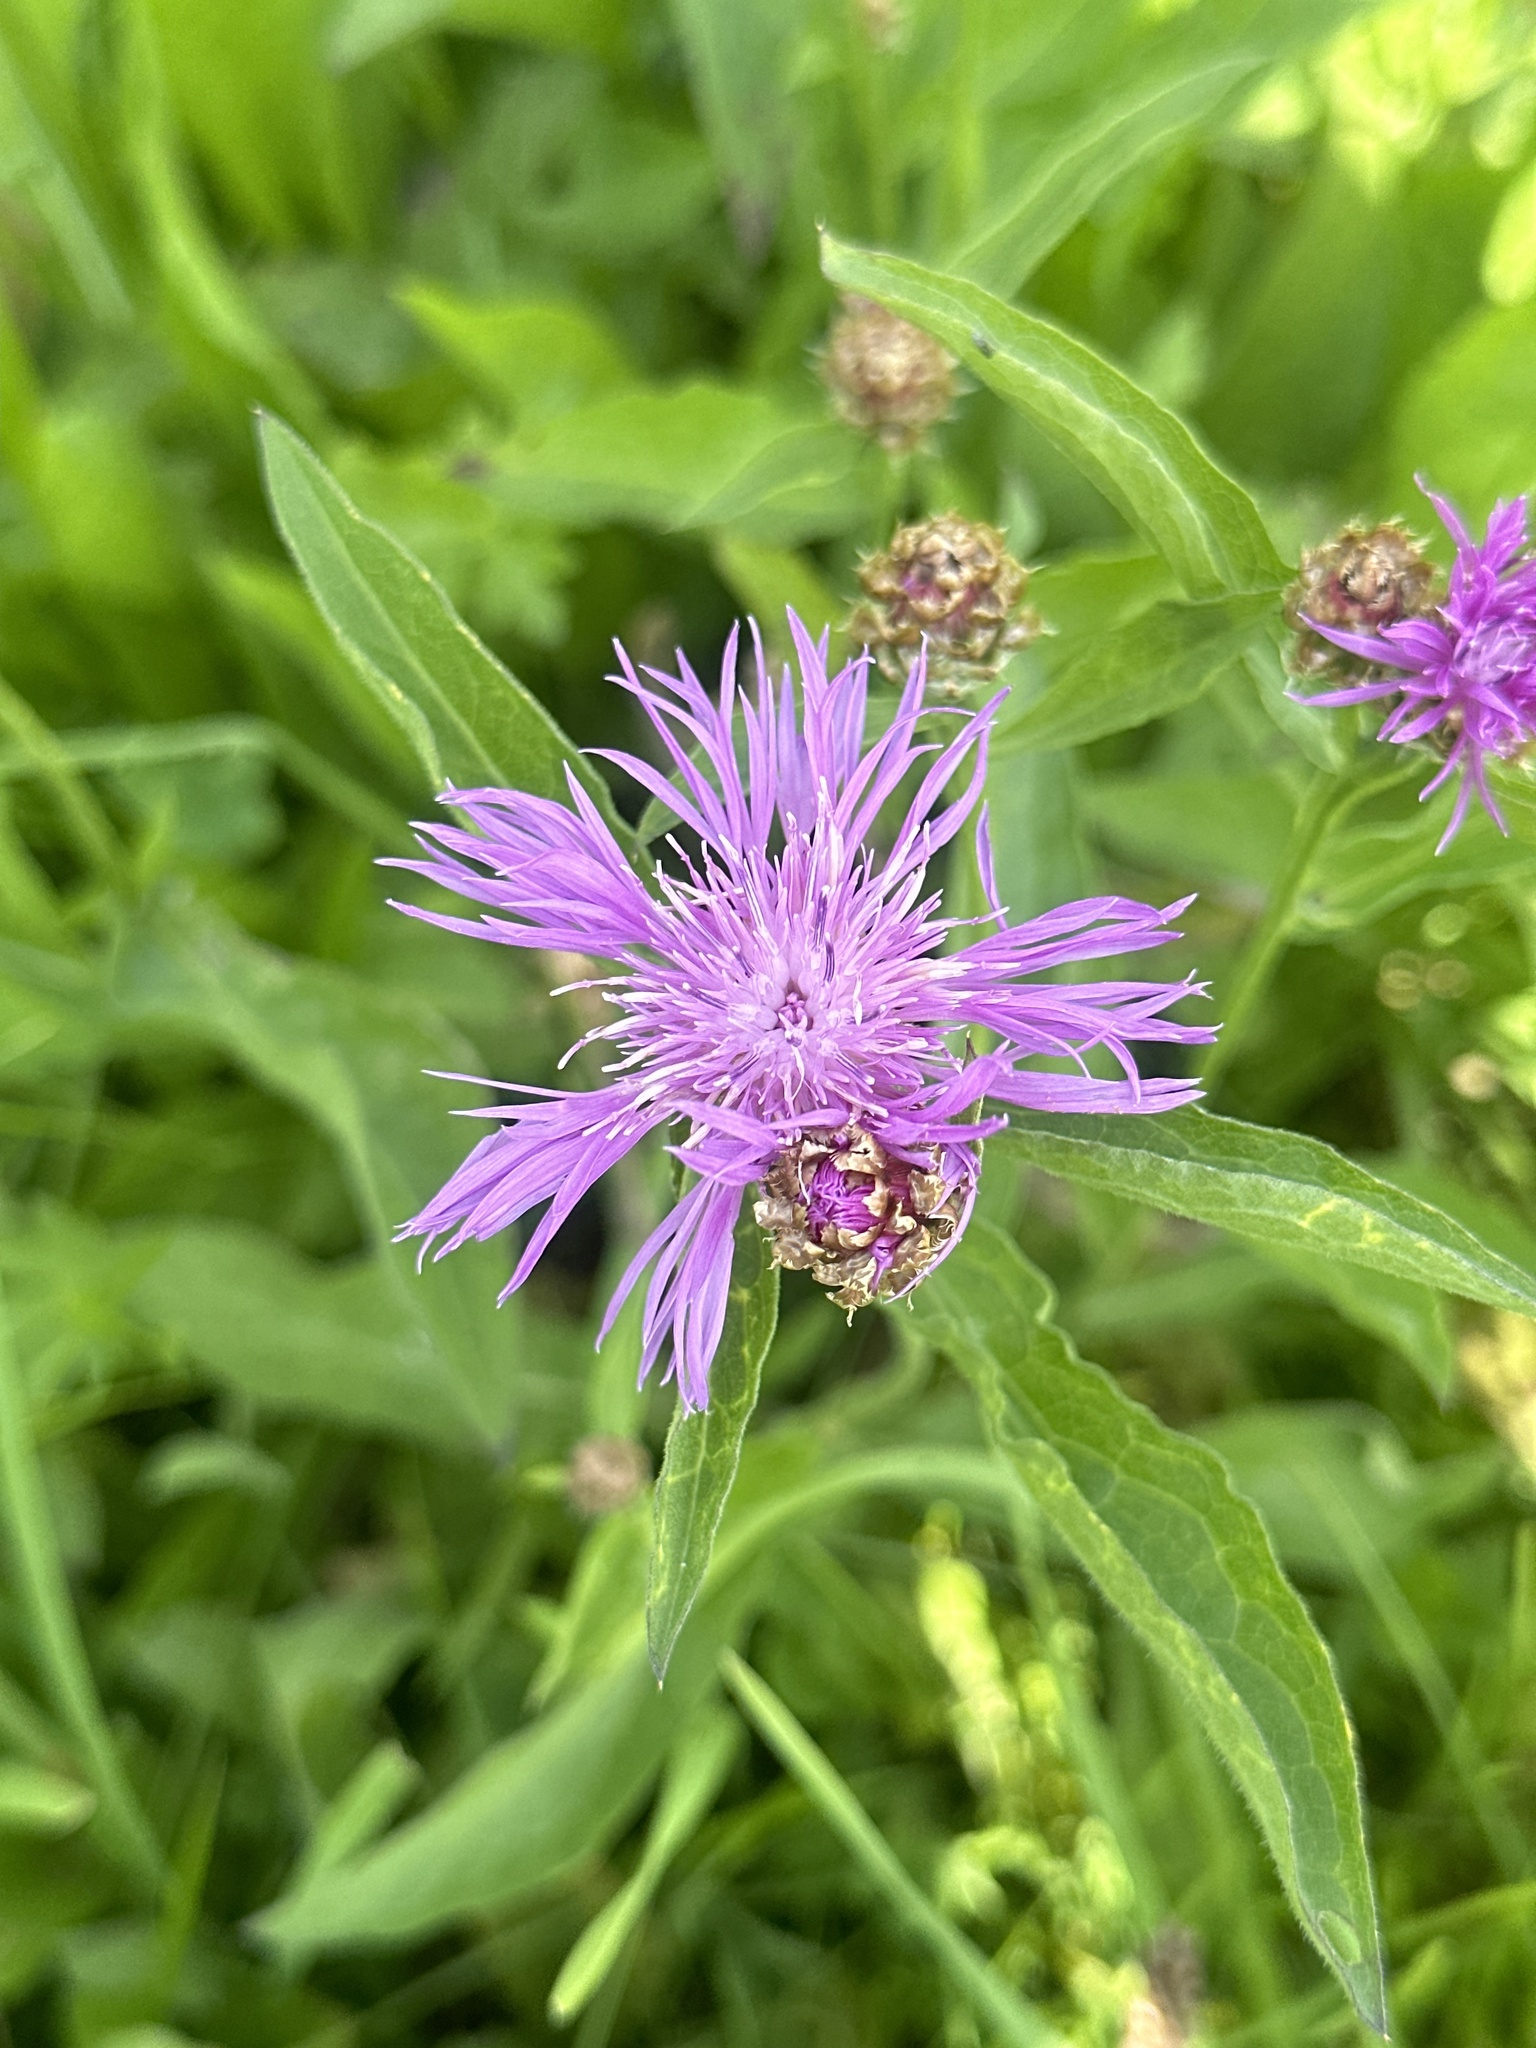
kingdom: Plantae
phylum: Tracheophyta
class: Magnoliopsida
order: Asterales
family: Asteraceae
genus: Centaurea
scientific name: Centaurea jacea
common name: Brown knapweed
